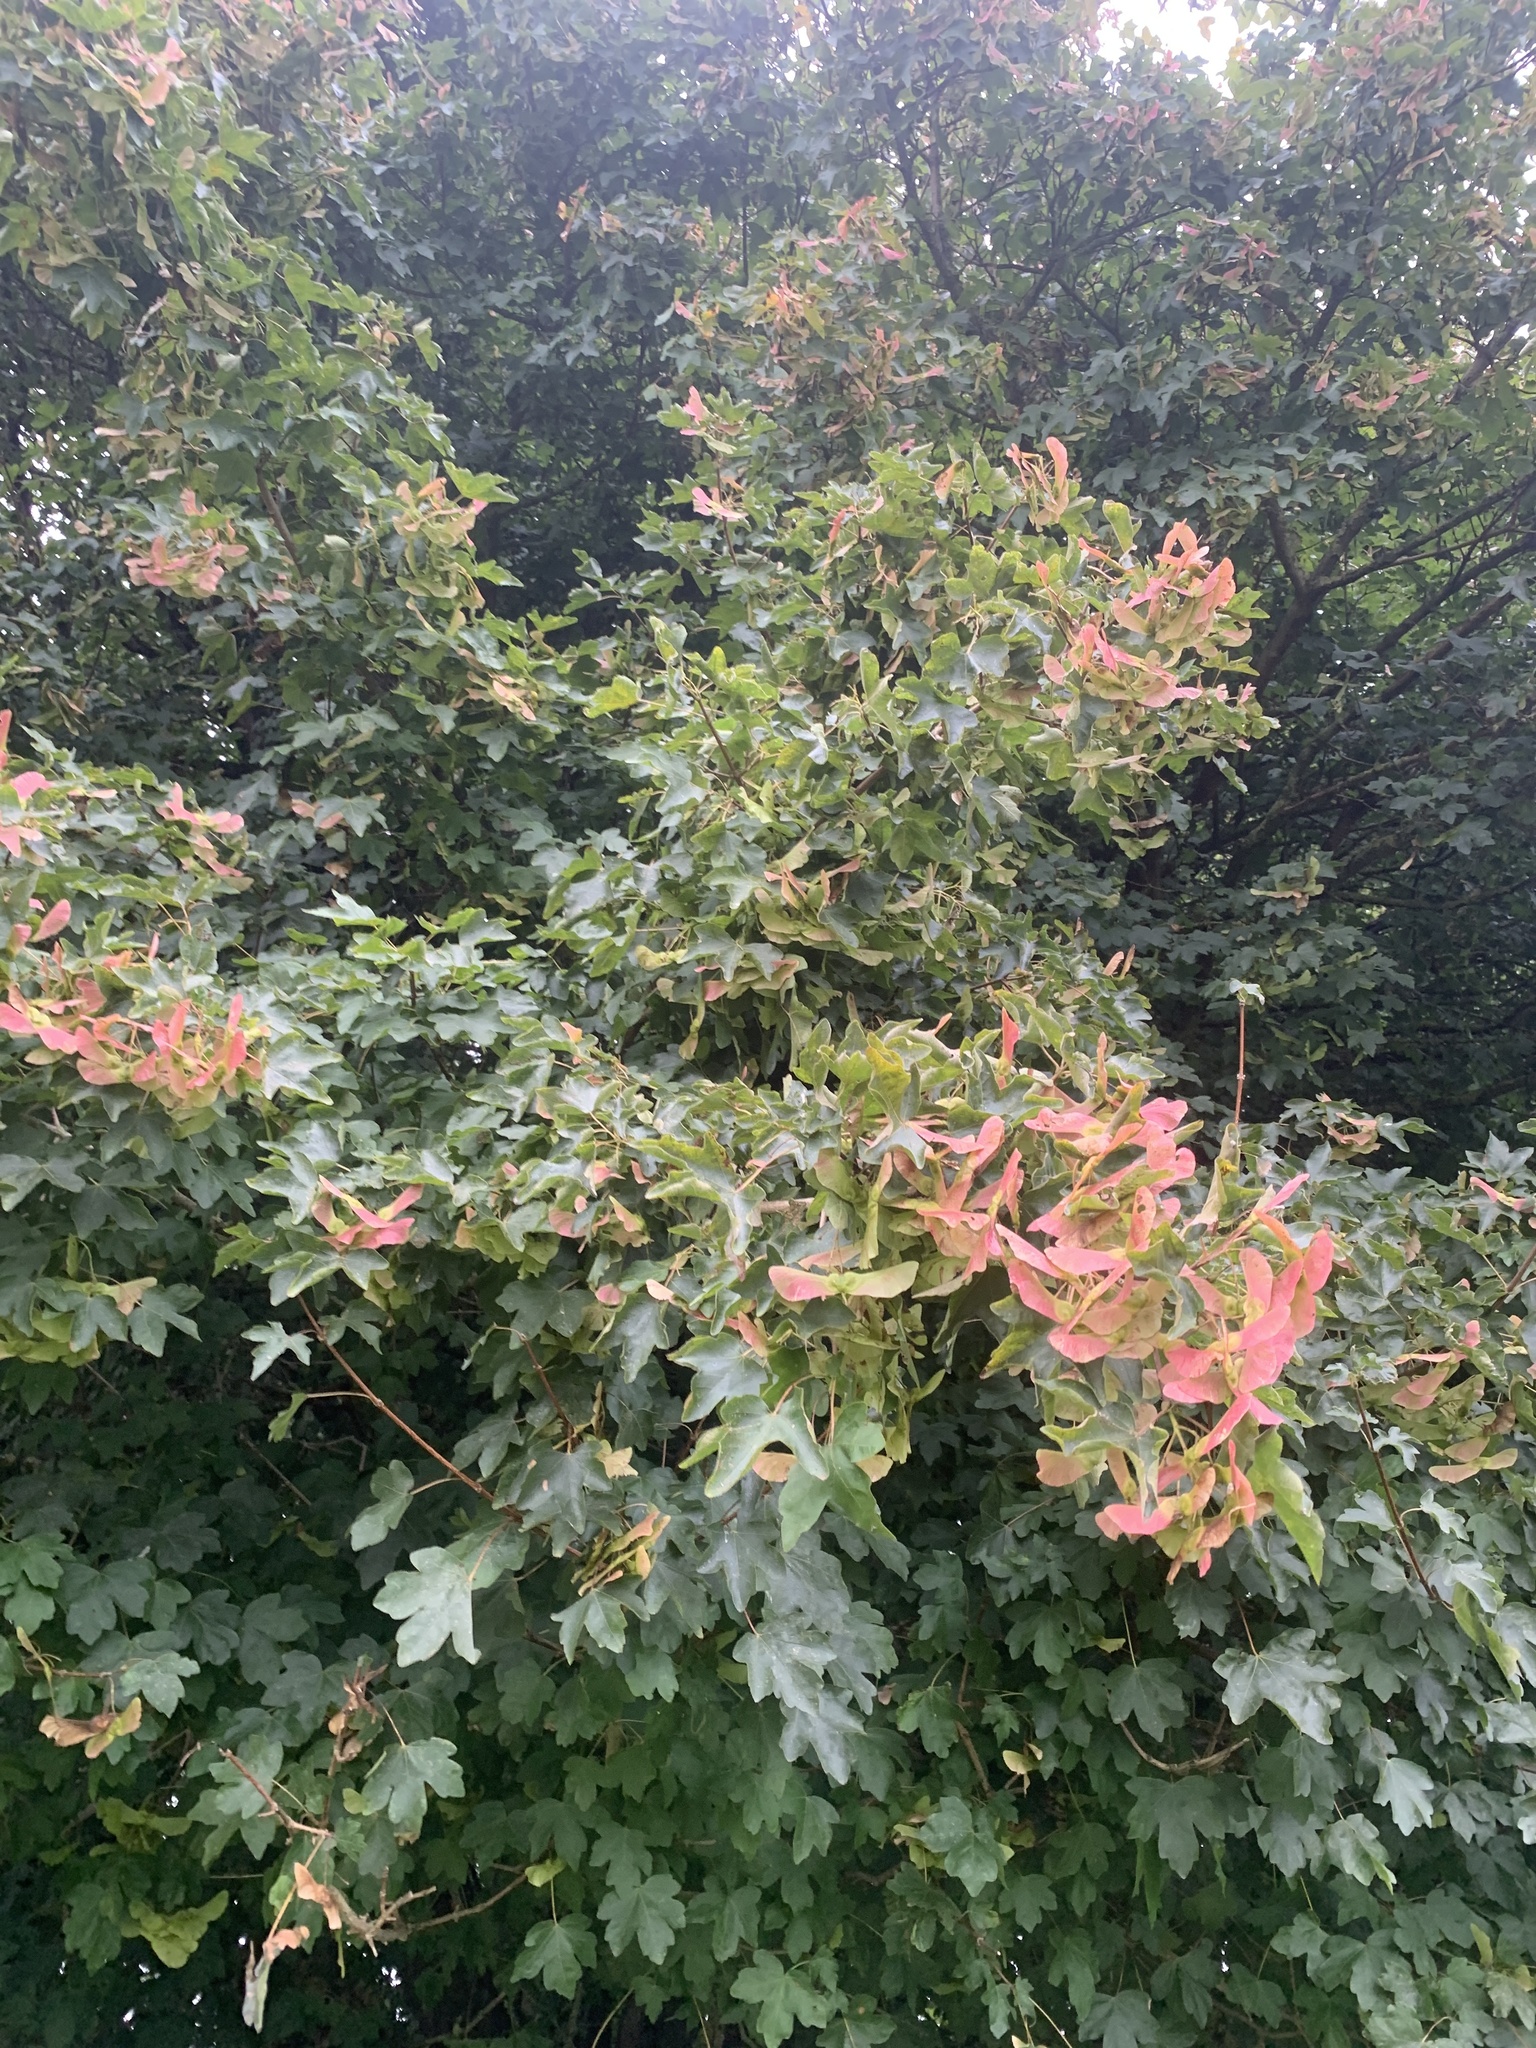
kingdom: Plantae
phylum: Tracheophyta
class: Magnoliopsida
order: Sapindales
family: Sapindaceae
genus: Acer
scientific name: Acer campestre
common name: Field maple
